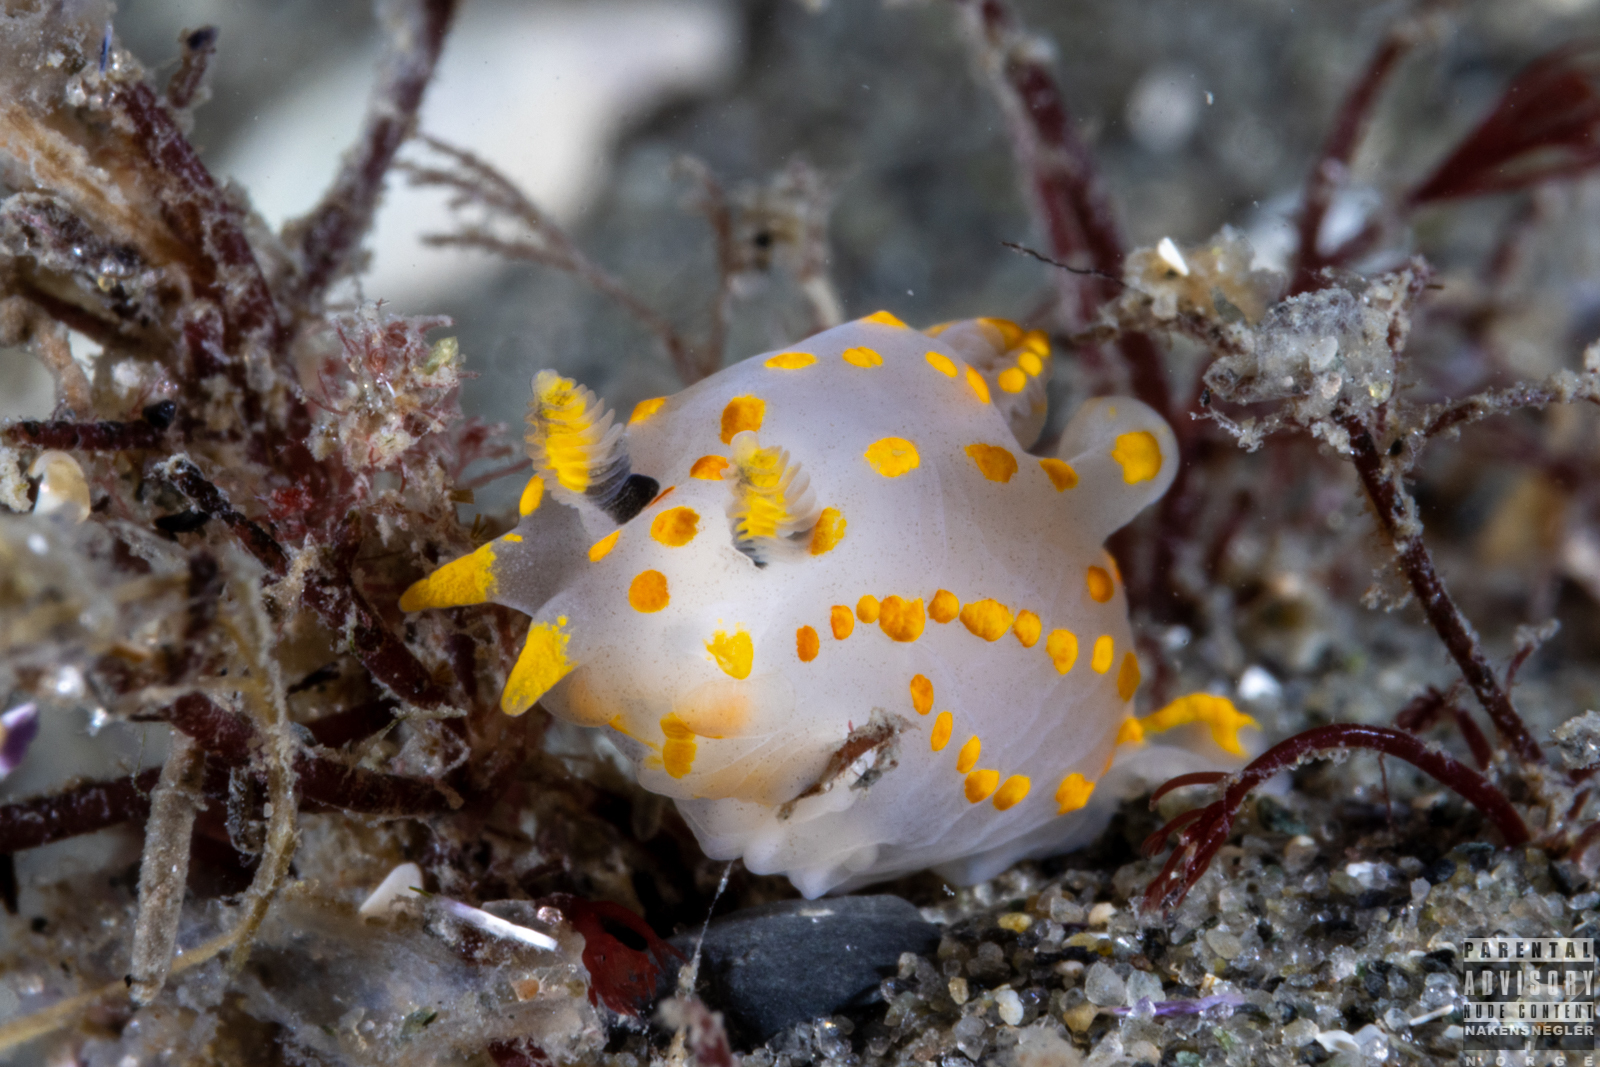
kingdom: Animalia
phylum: Mollusca
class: Gastropoda
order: Nudibranchia
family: Polyceridae
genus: Polycera
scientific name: Polycera quadrilineata
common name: Four-striped polycera
